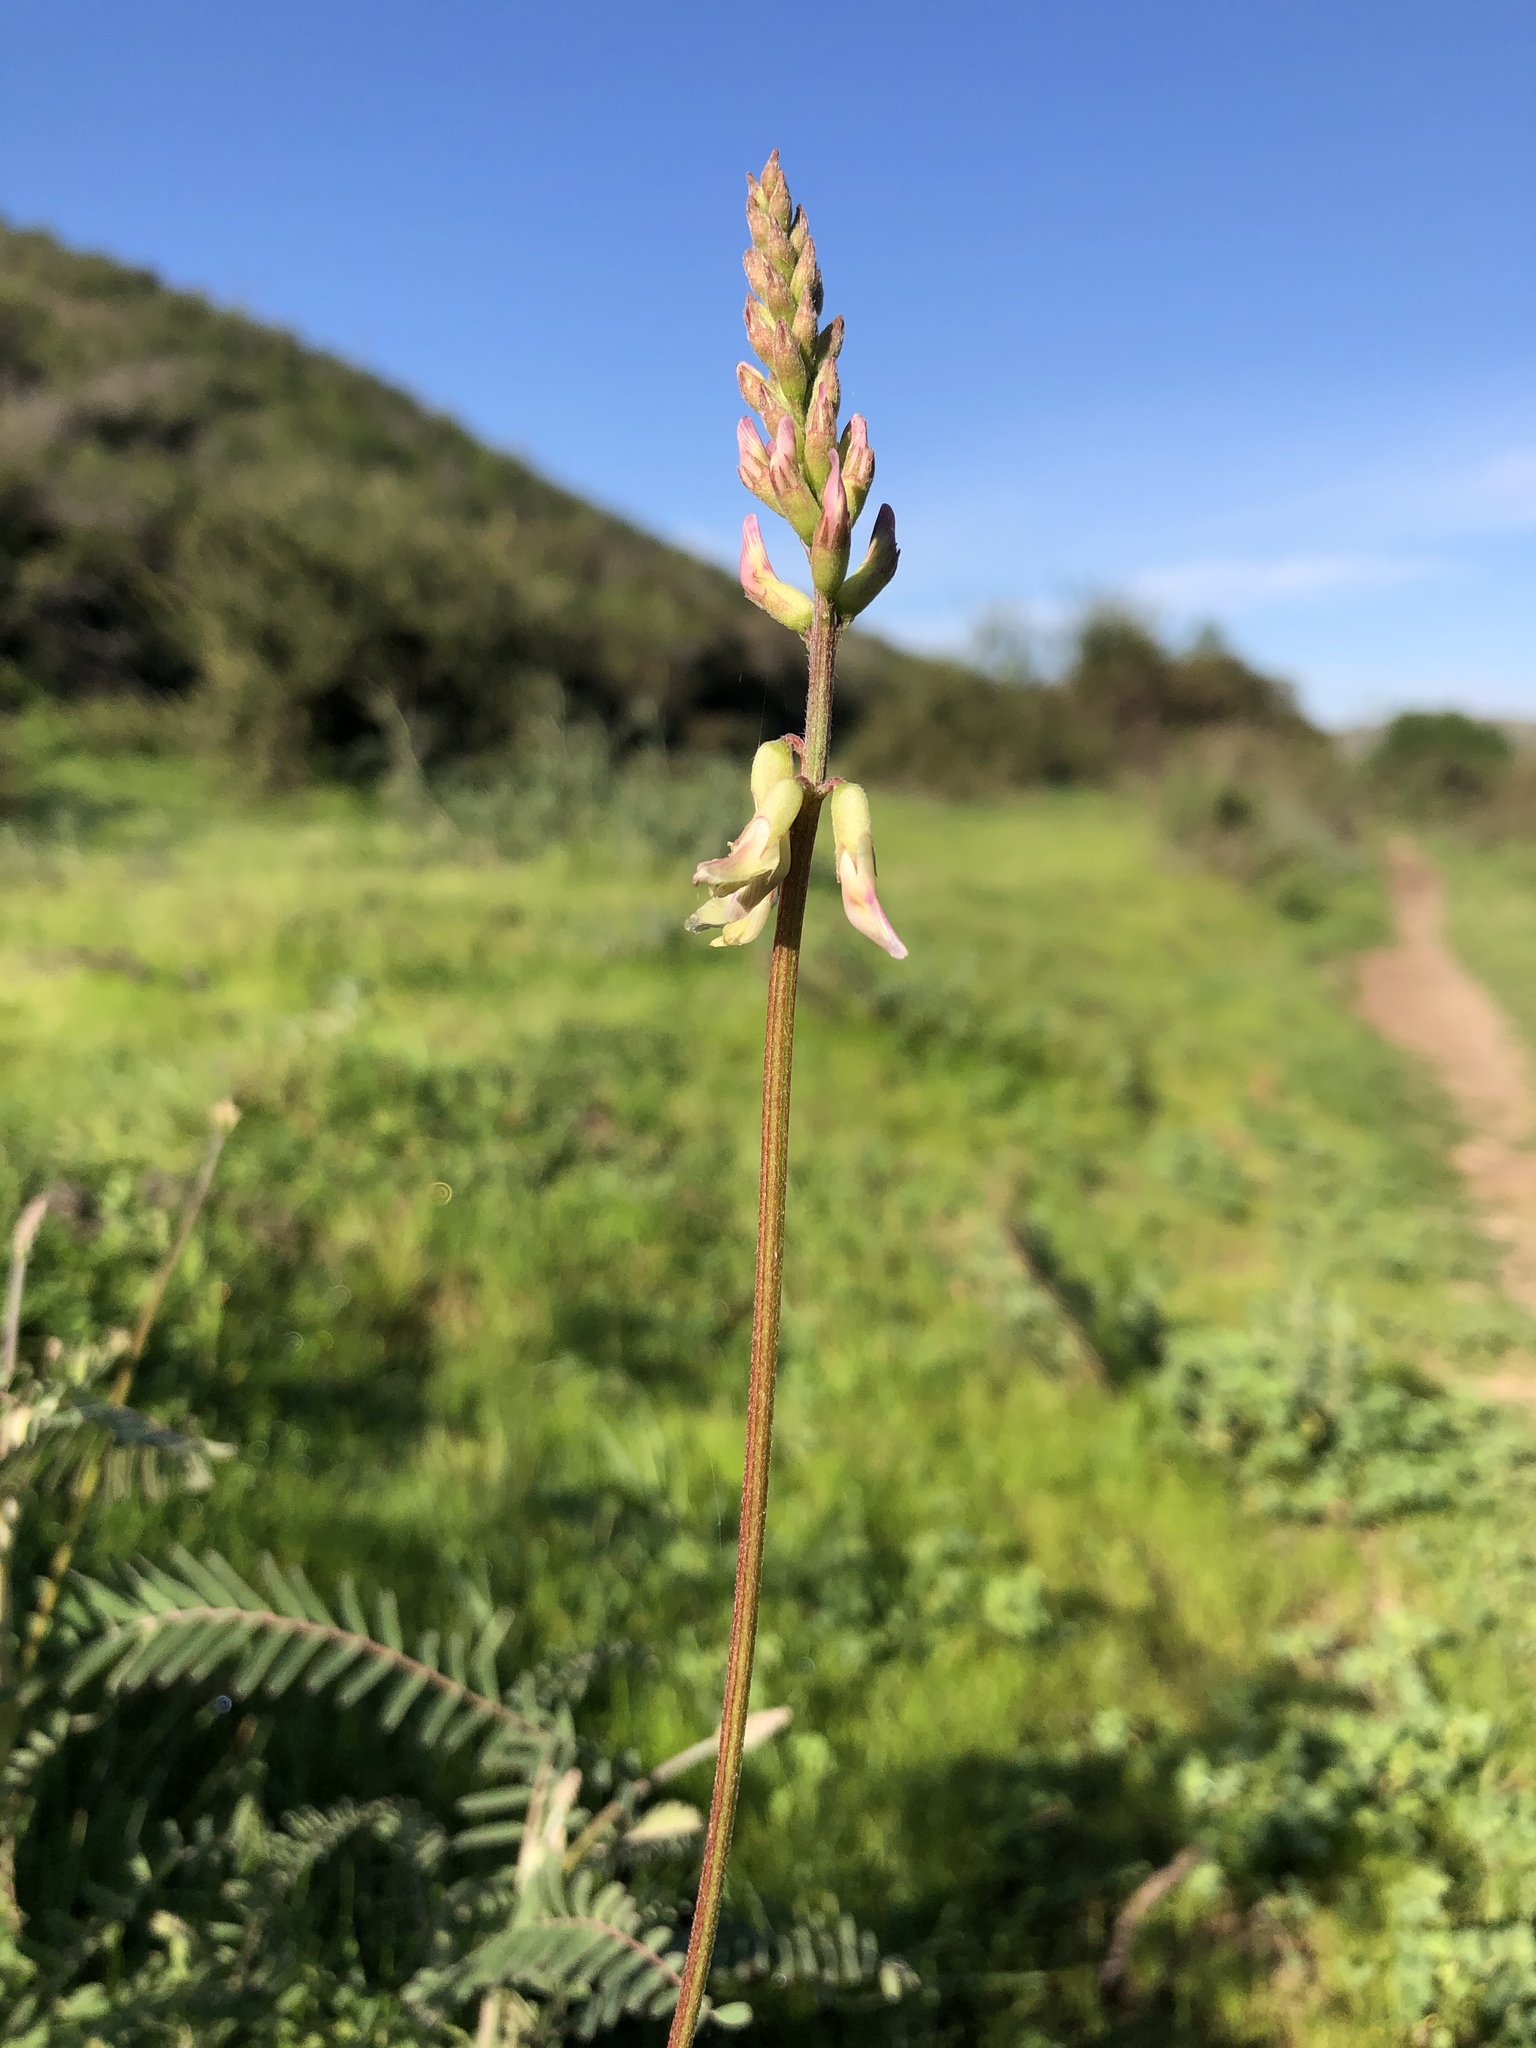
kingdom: Plantae
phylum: Tracheophyta
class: Magnoliopsida
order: Fabales
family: Fabaceae
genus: Astragalus
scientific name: Astragalus trichopodus
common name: Santa barbara milk-vetch
